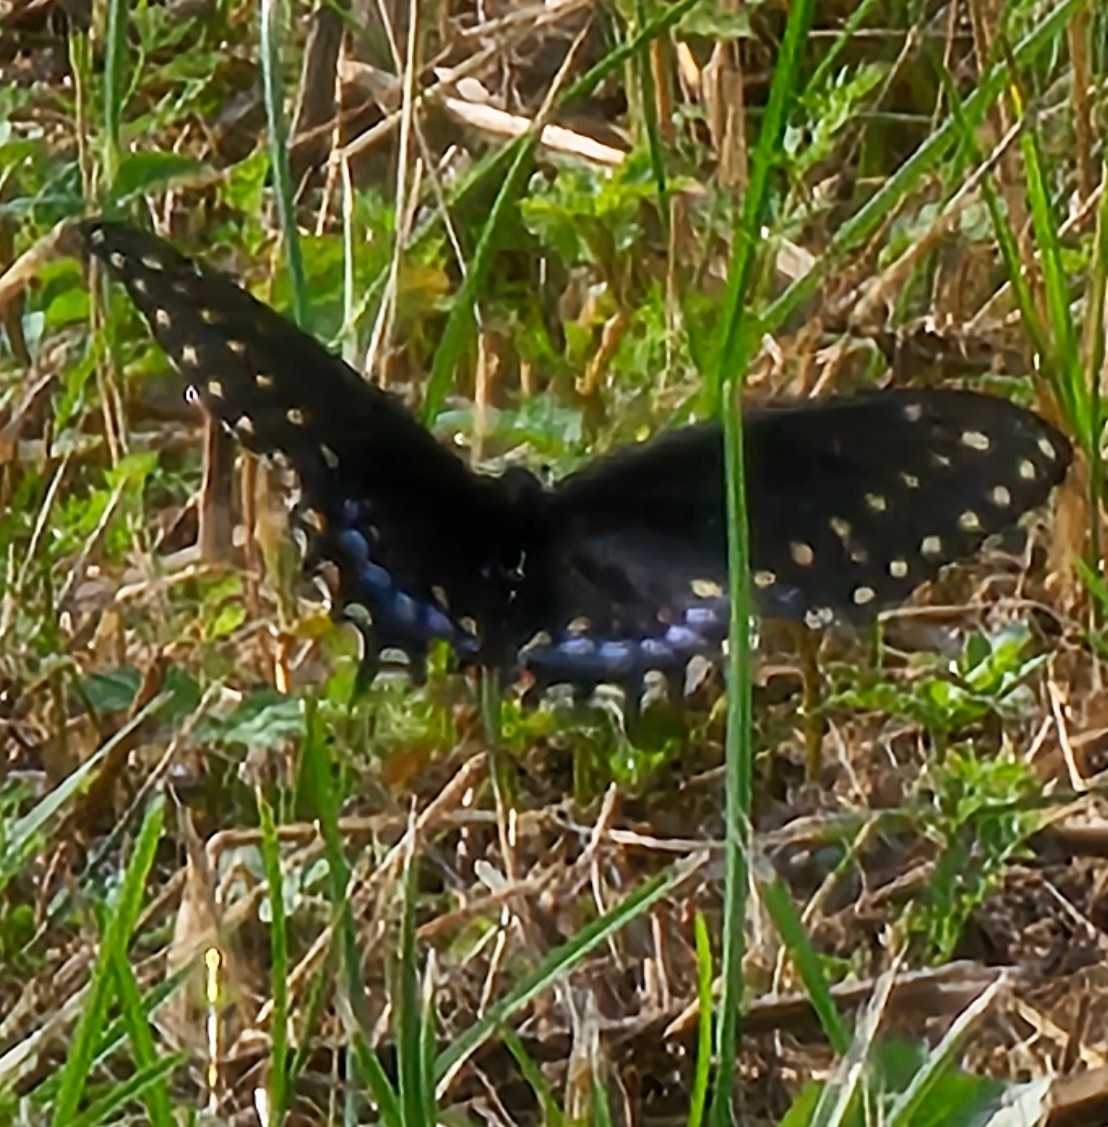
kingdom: Animalia
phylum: Arthropoda
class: Insecta
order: Lepidoptera
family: Papilionidae
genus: Papilio
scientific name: Papilio polyxenes
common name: Black swallowtail
